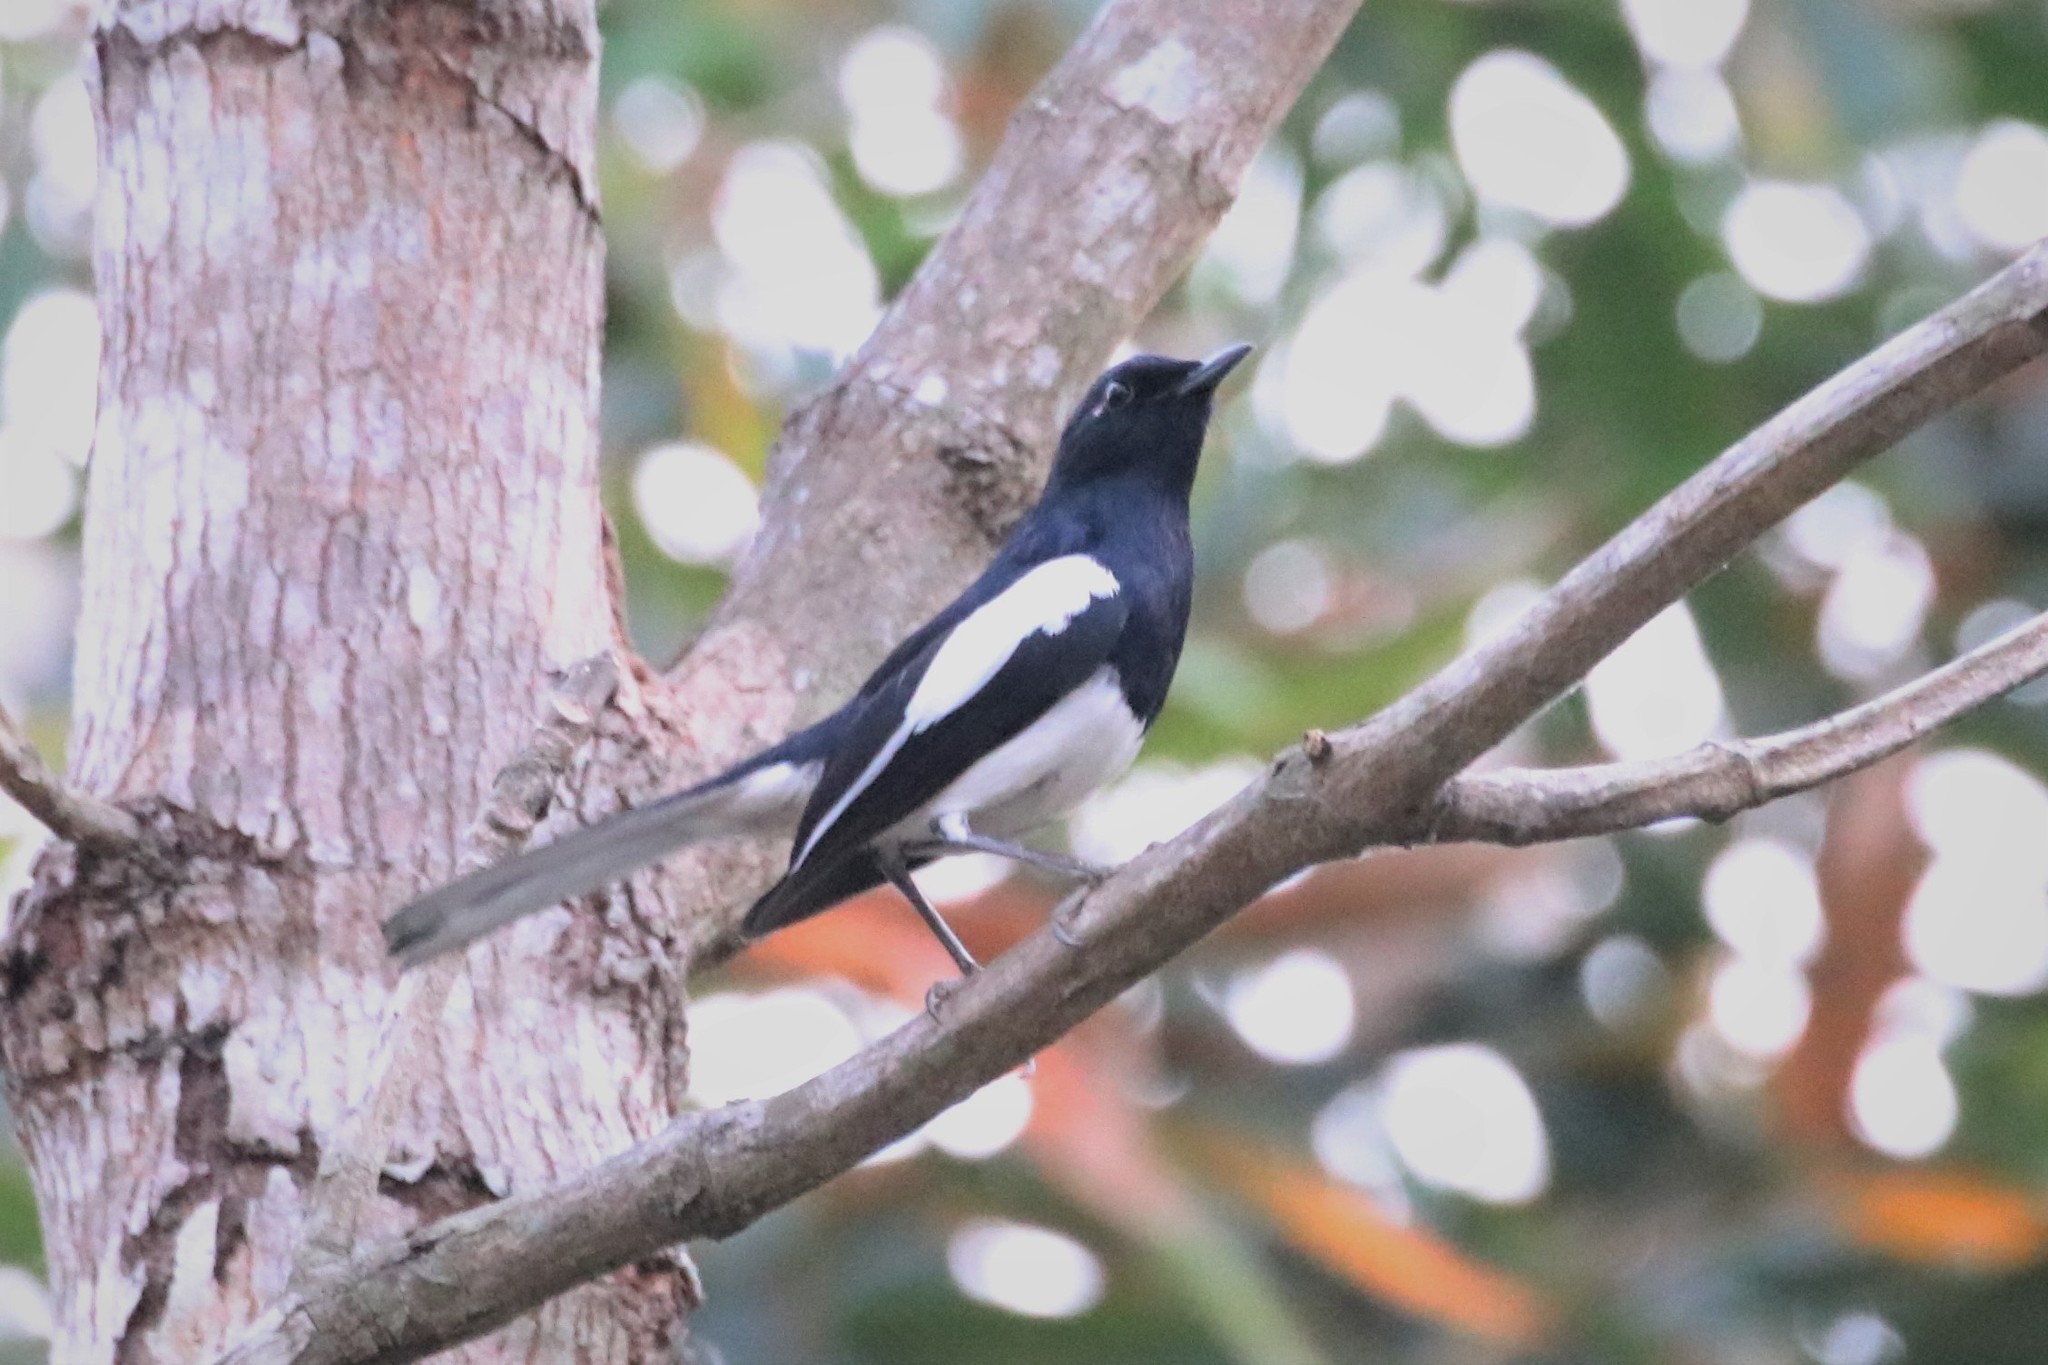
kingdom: Animalia
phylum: Chordata
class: Aves
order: Passeriformes
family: Muscicapidae
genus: Copsychus
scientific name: Copsychus saularis
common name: Oriental magpie-robin
